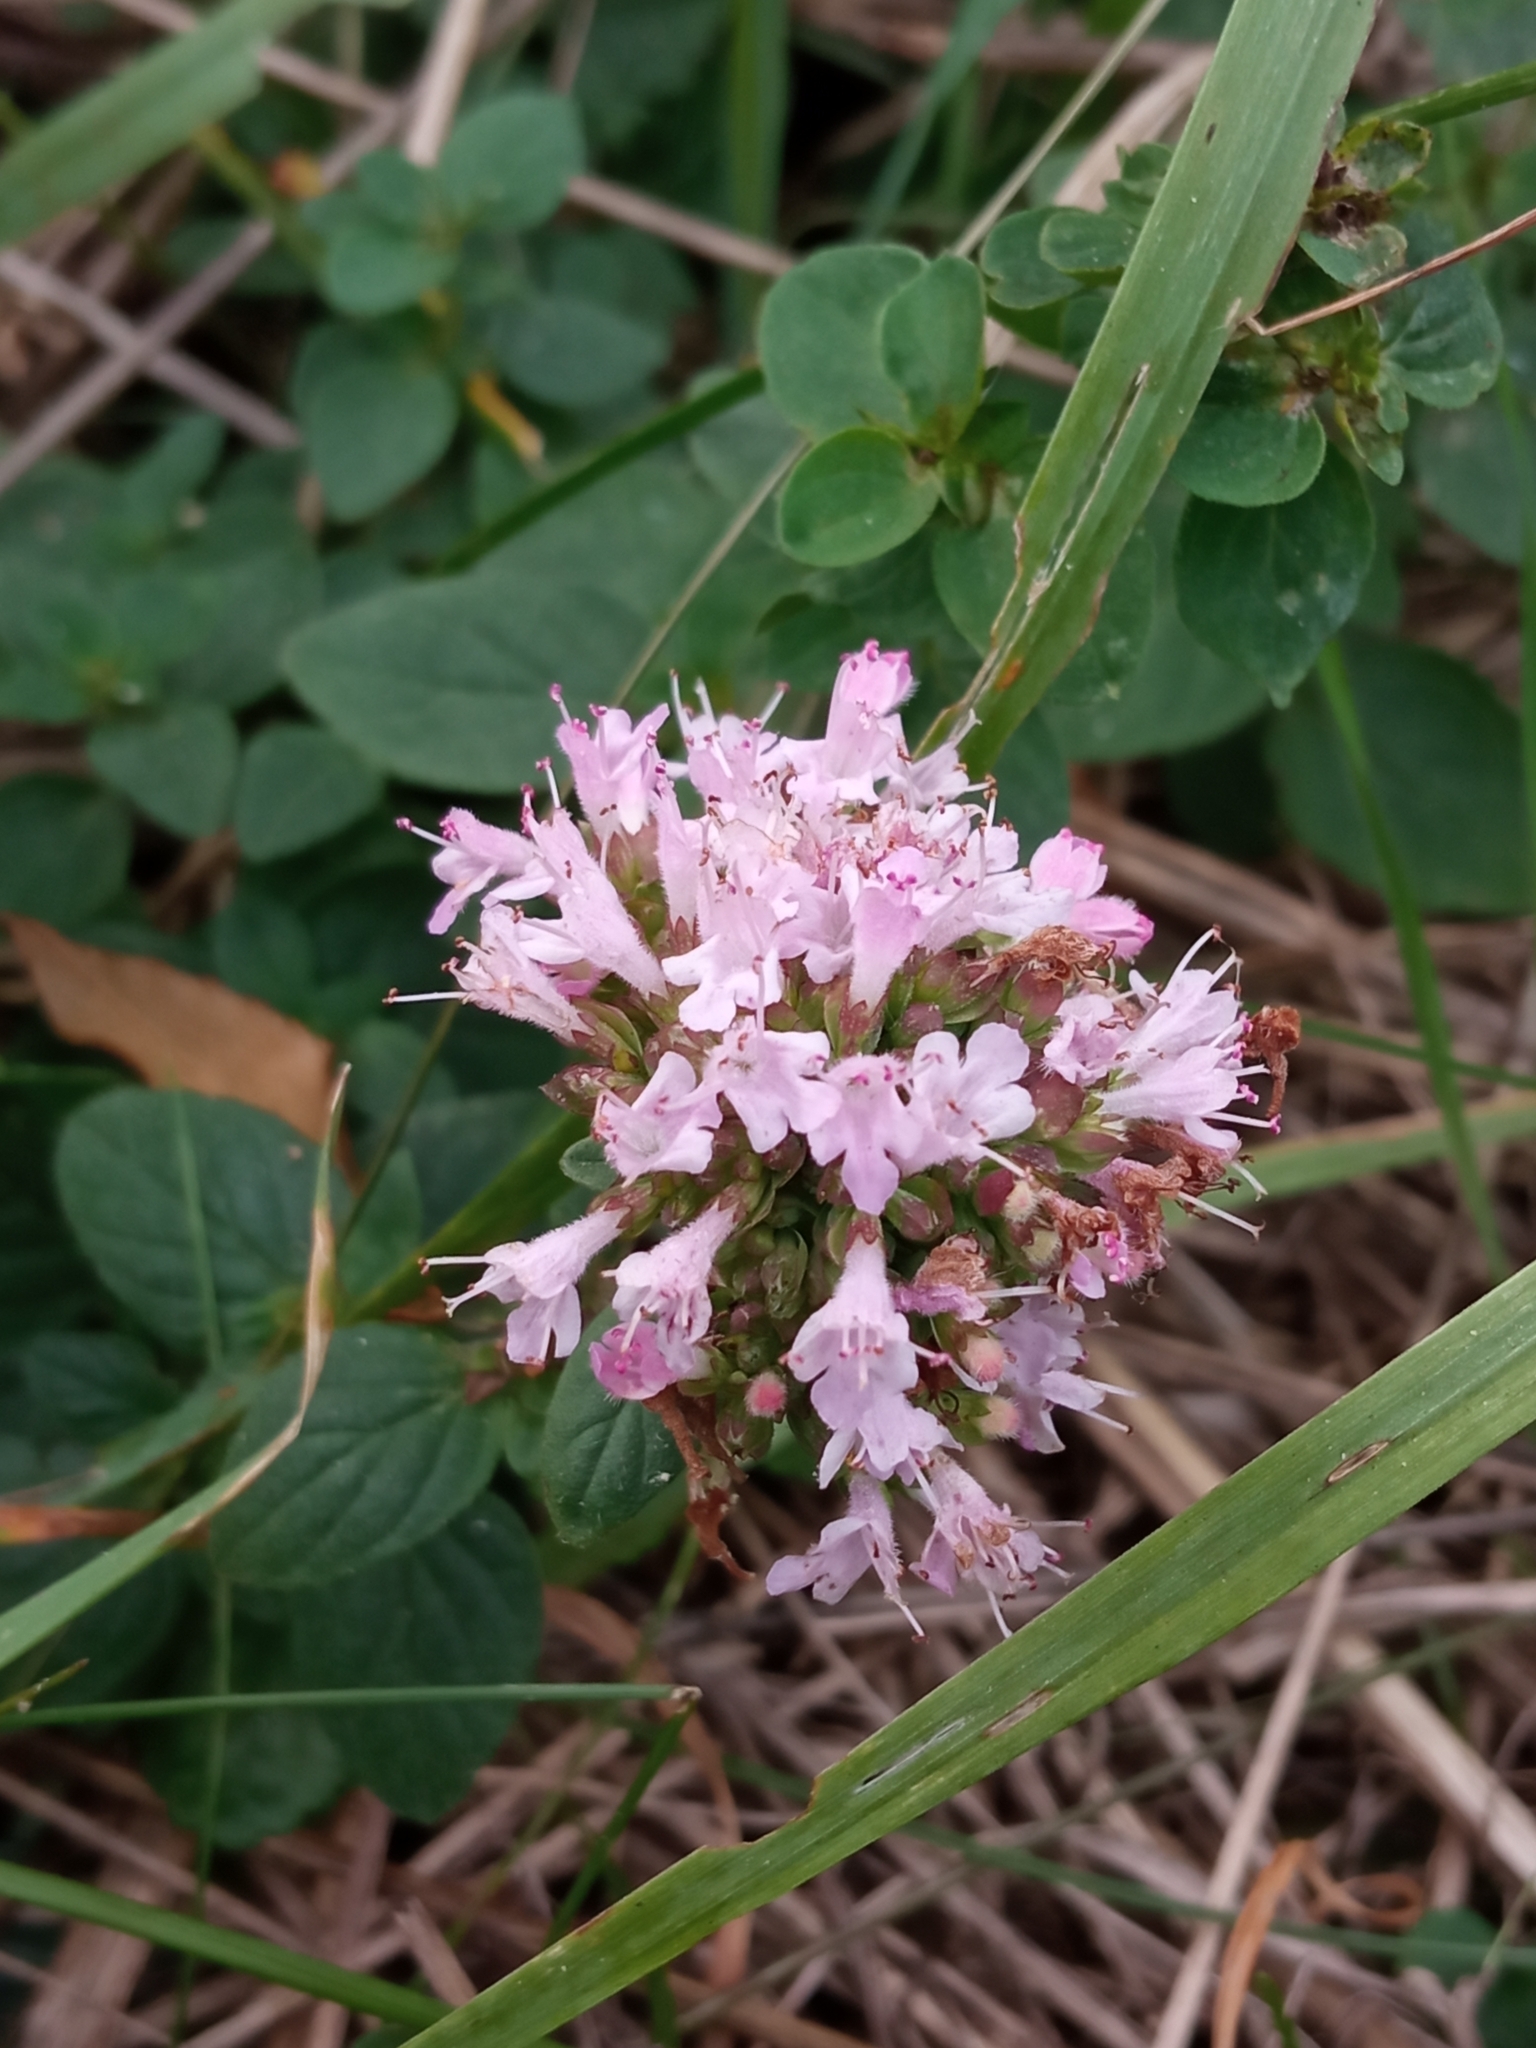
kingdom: Plantae
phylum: Tracheophyta
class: Magnoliopsida
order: Lamiales
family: Lamiaceae
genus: Origanum
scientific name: Origanum vulgare
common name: Wild marjoram
